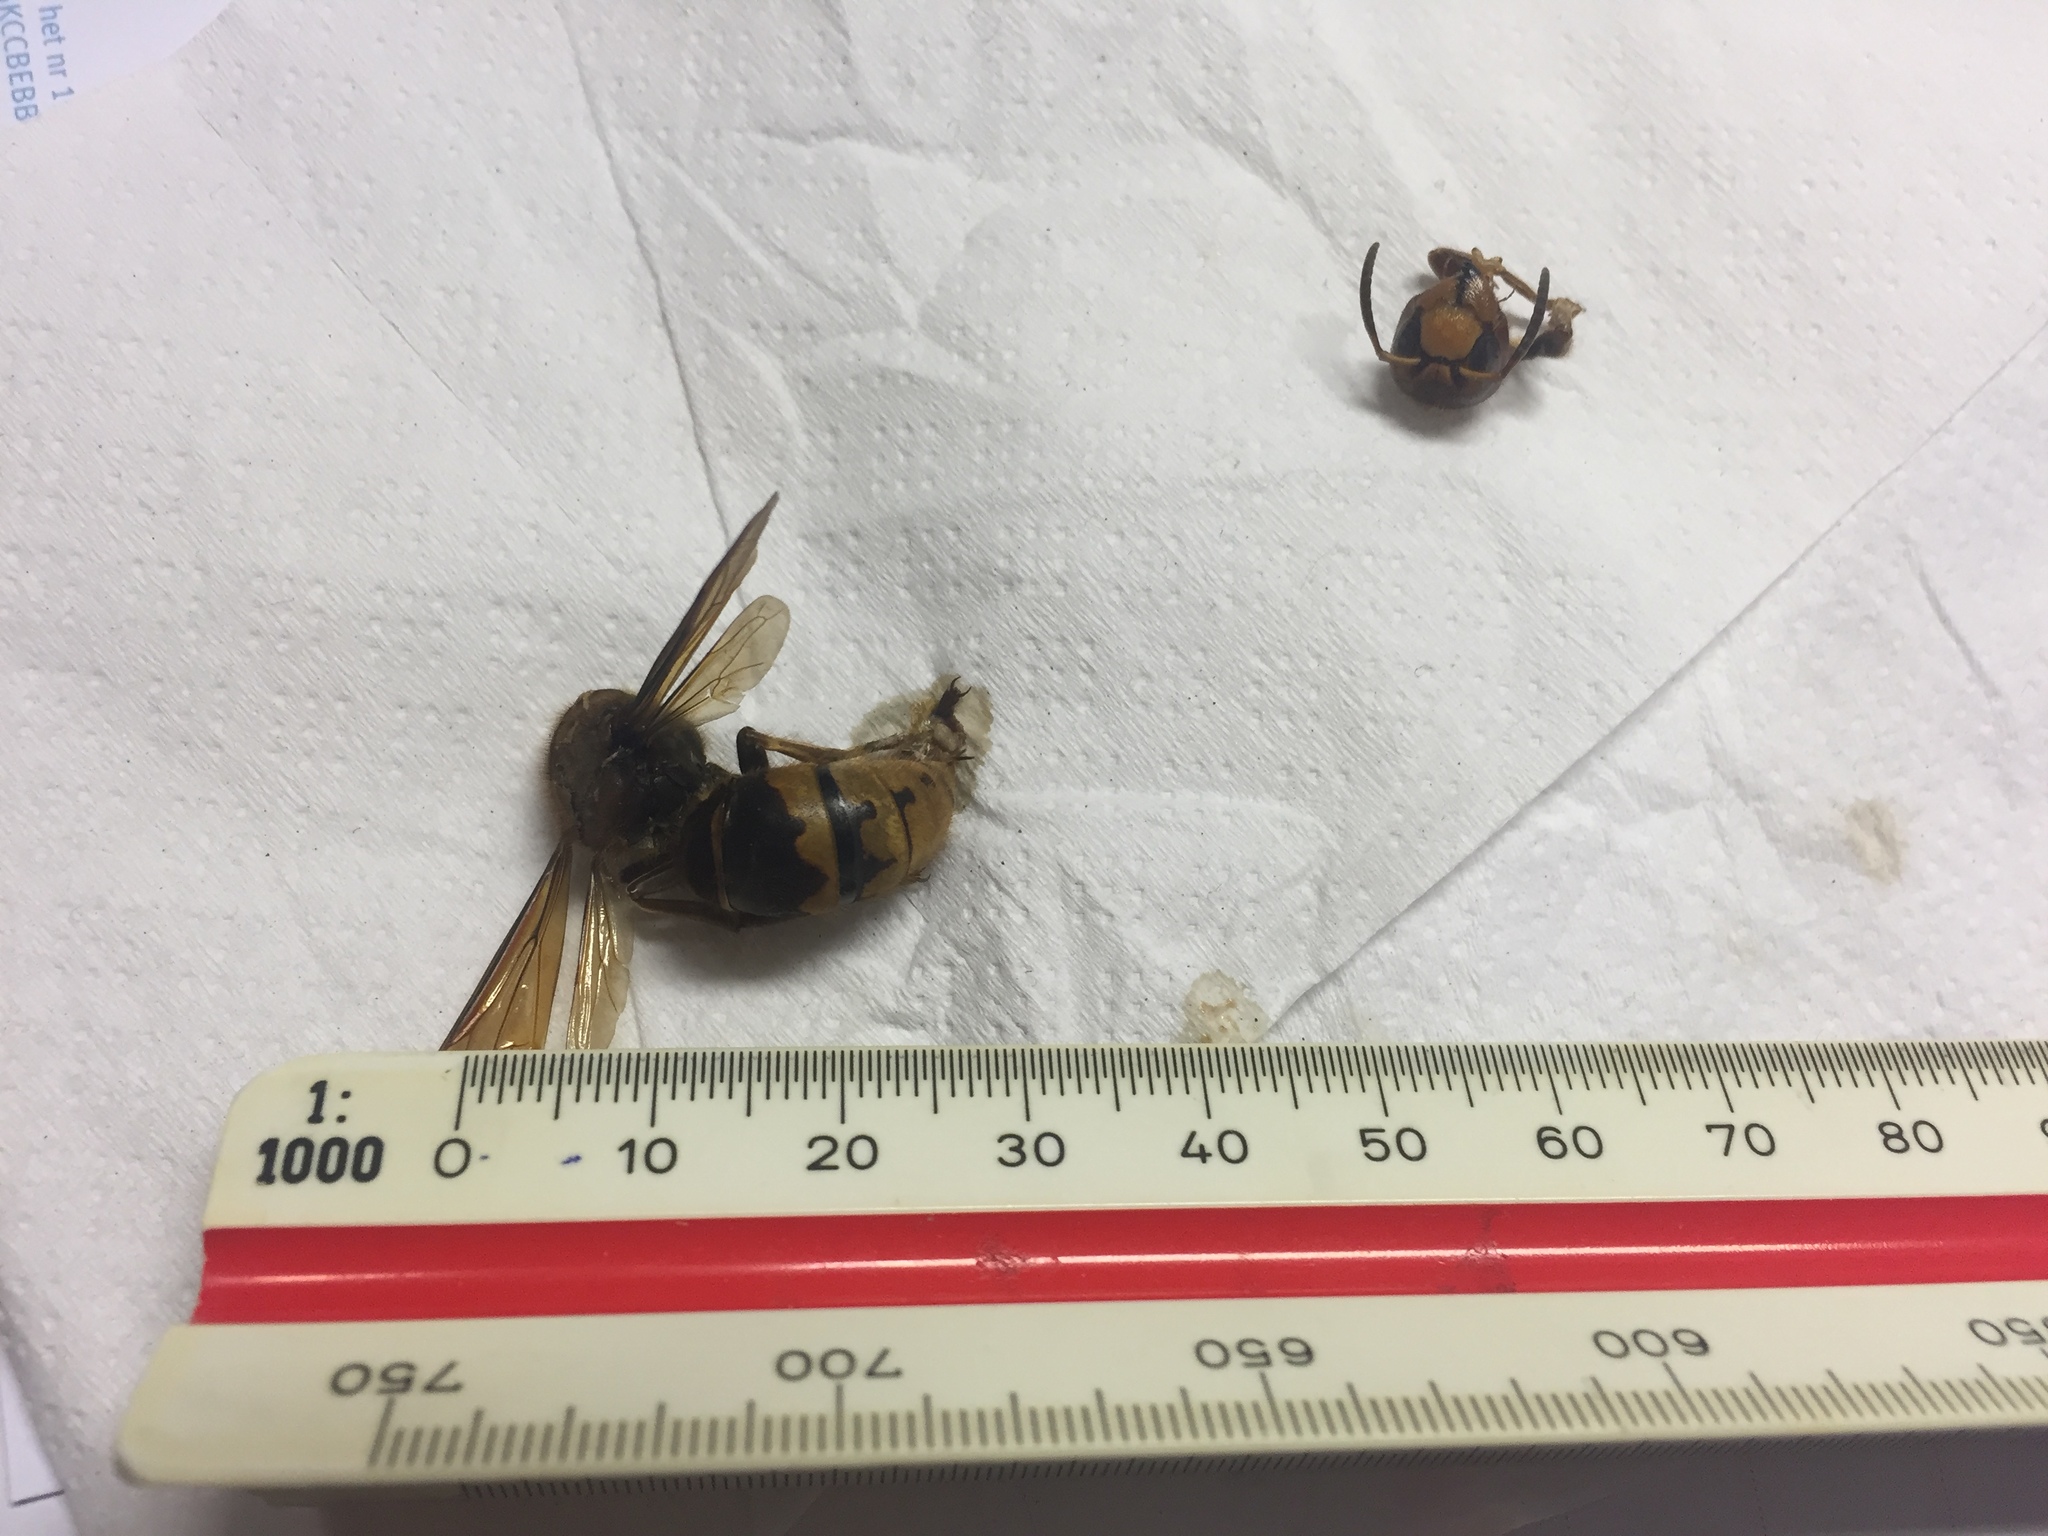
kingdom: Animalia
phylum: Arthropoda
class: Insecta
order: Hymenoptera
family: Vespidae
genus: Vespa
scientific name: Vespa crabro
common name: Hornet
